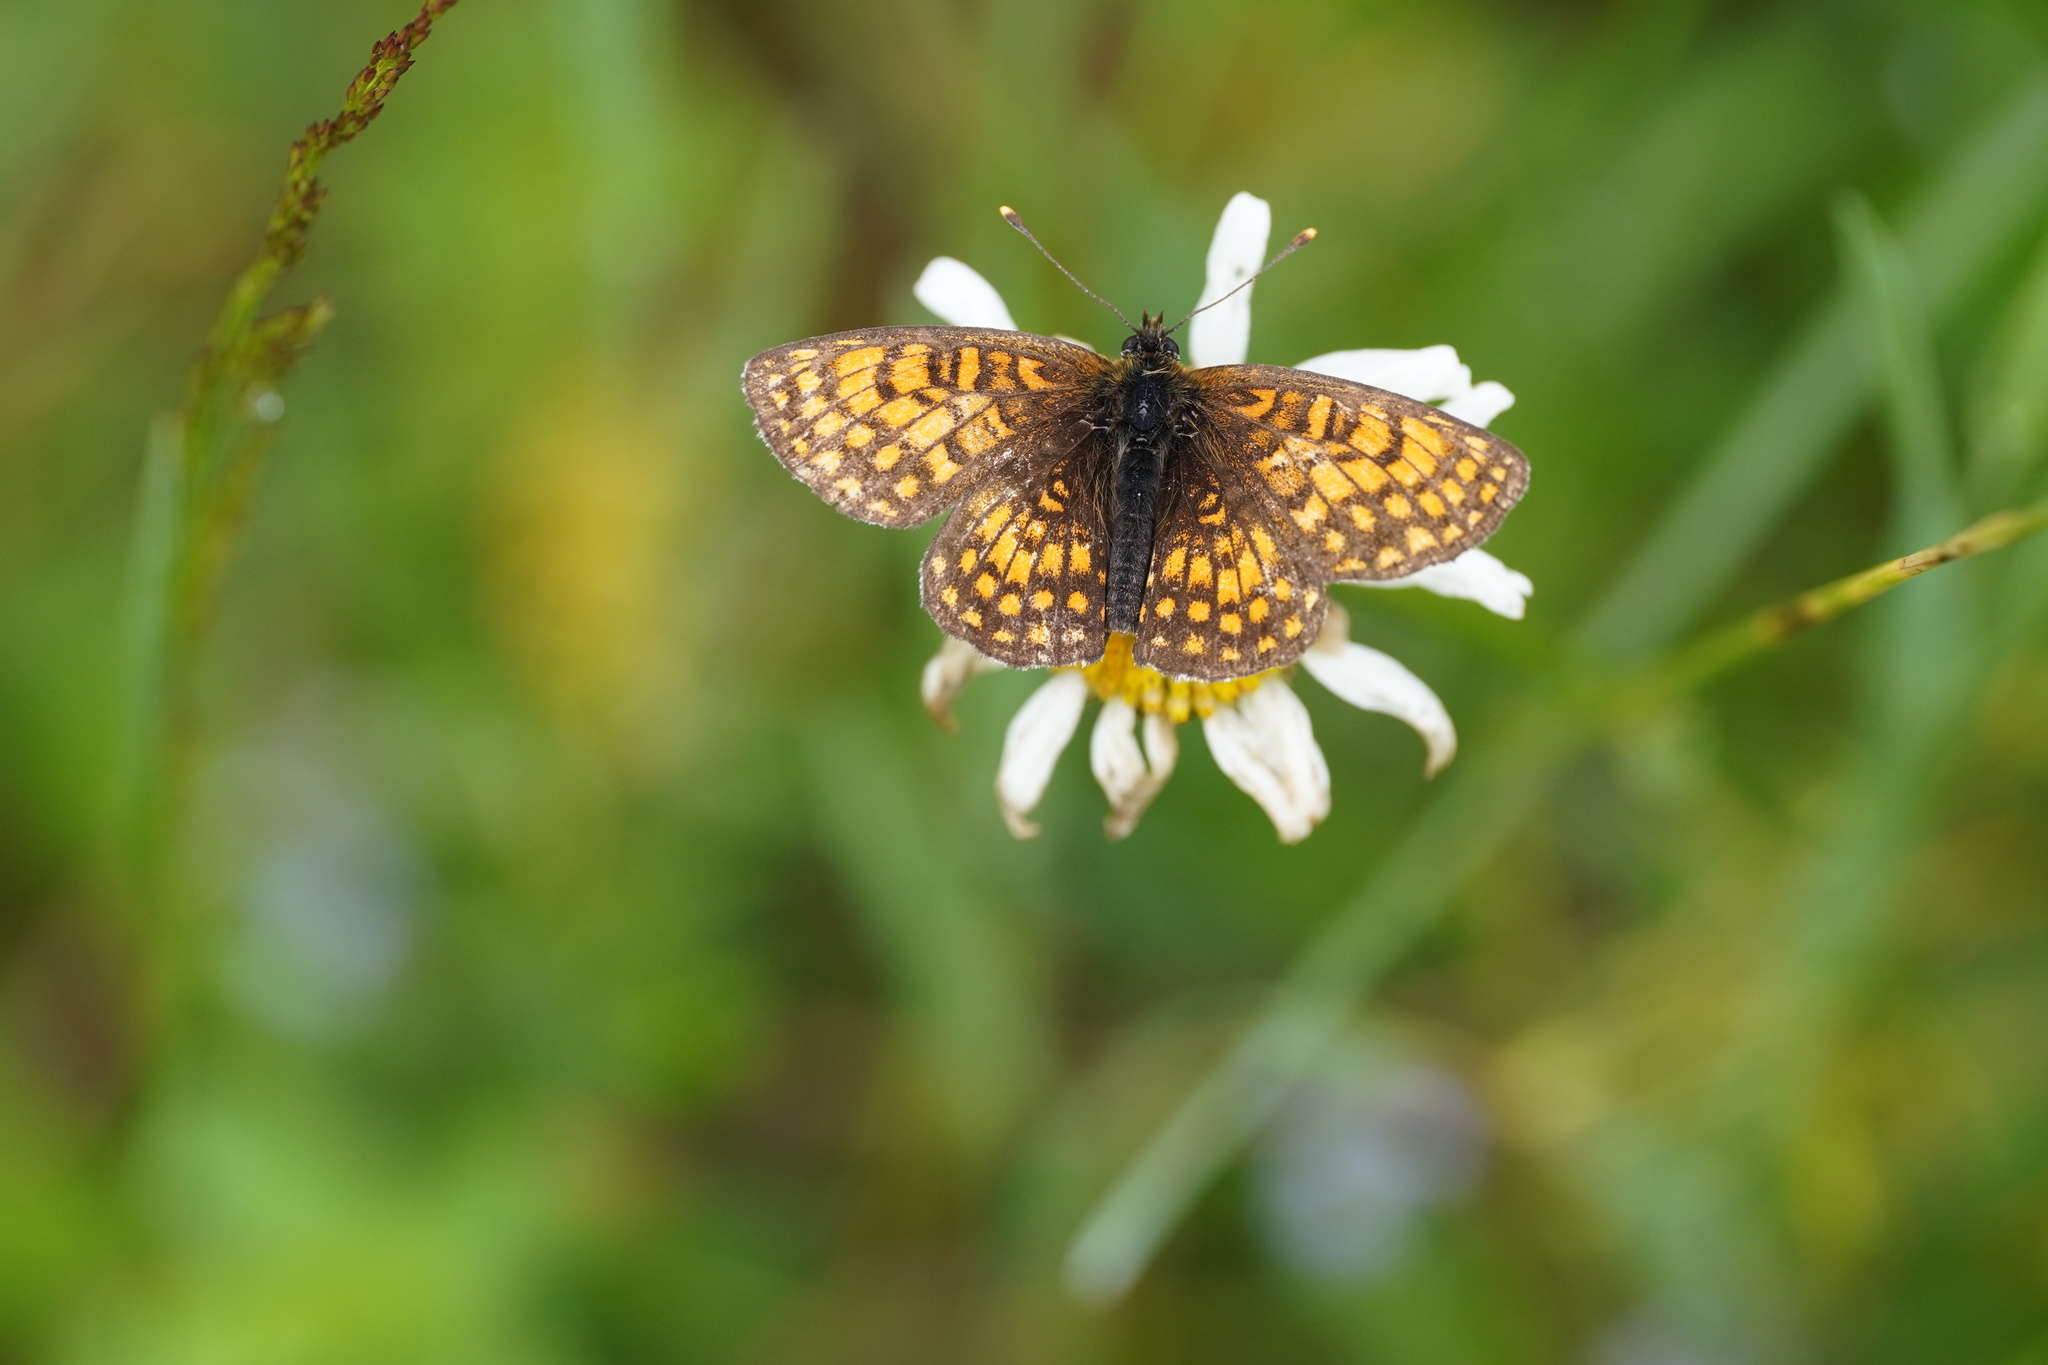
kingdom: Animalia
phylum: Arthropoda
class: Insecta
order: Lepidoptera
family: Nymphalidae
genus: Melitaea
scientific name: Melitaea athalia
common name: Heath fritillary
